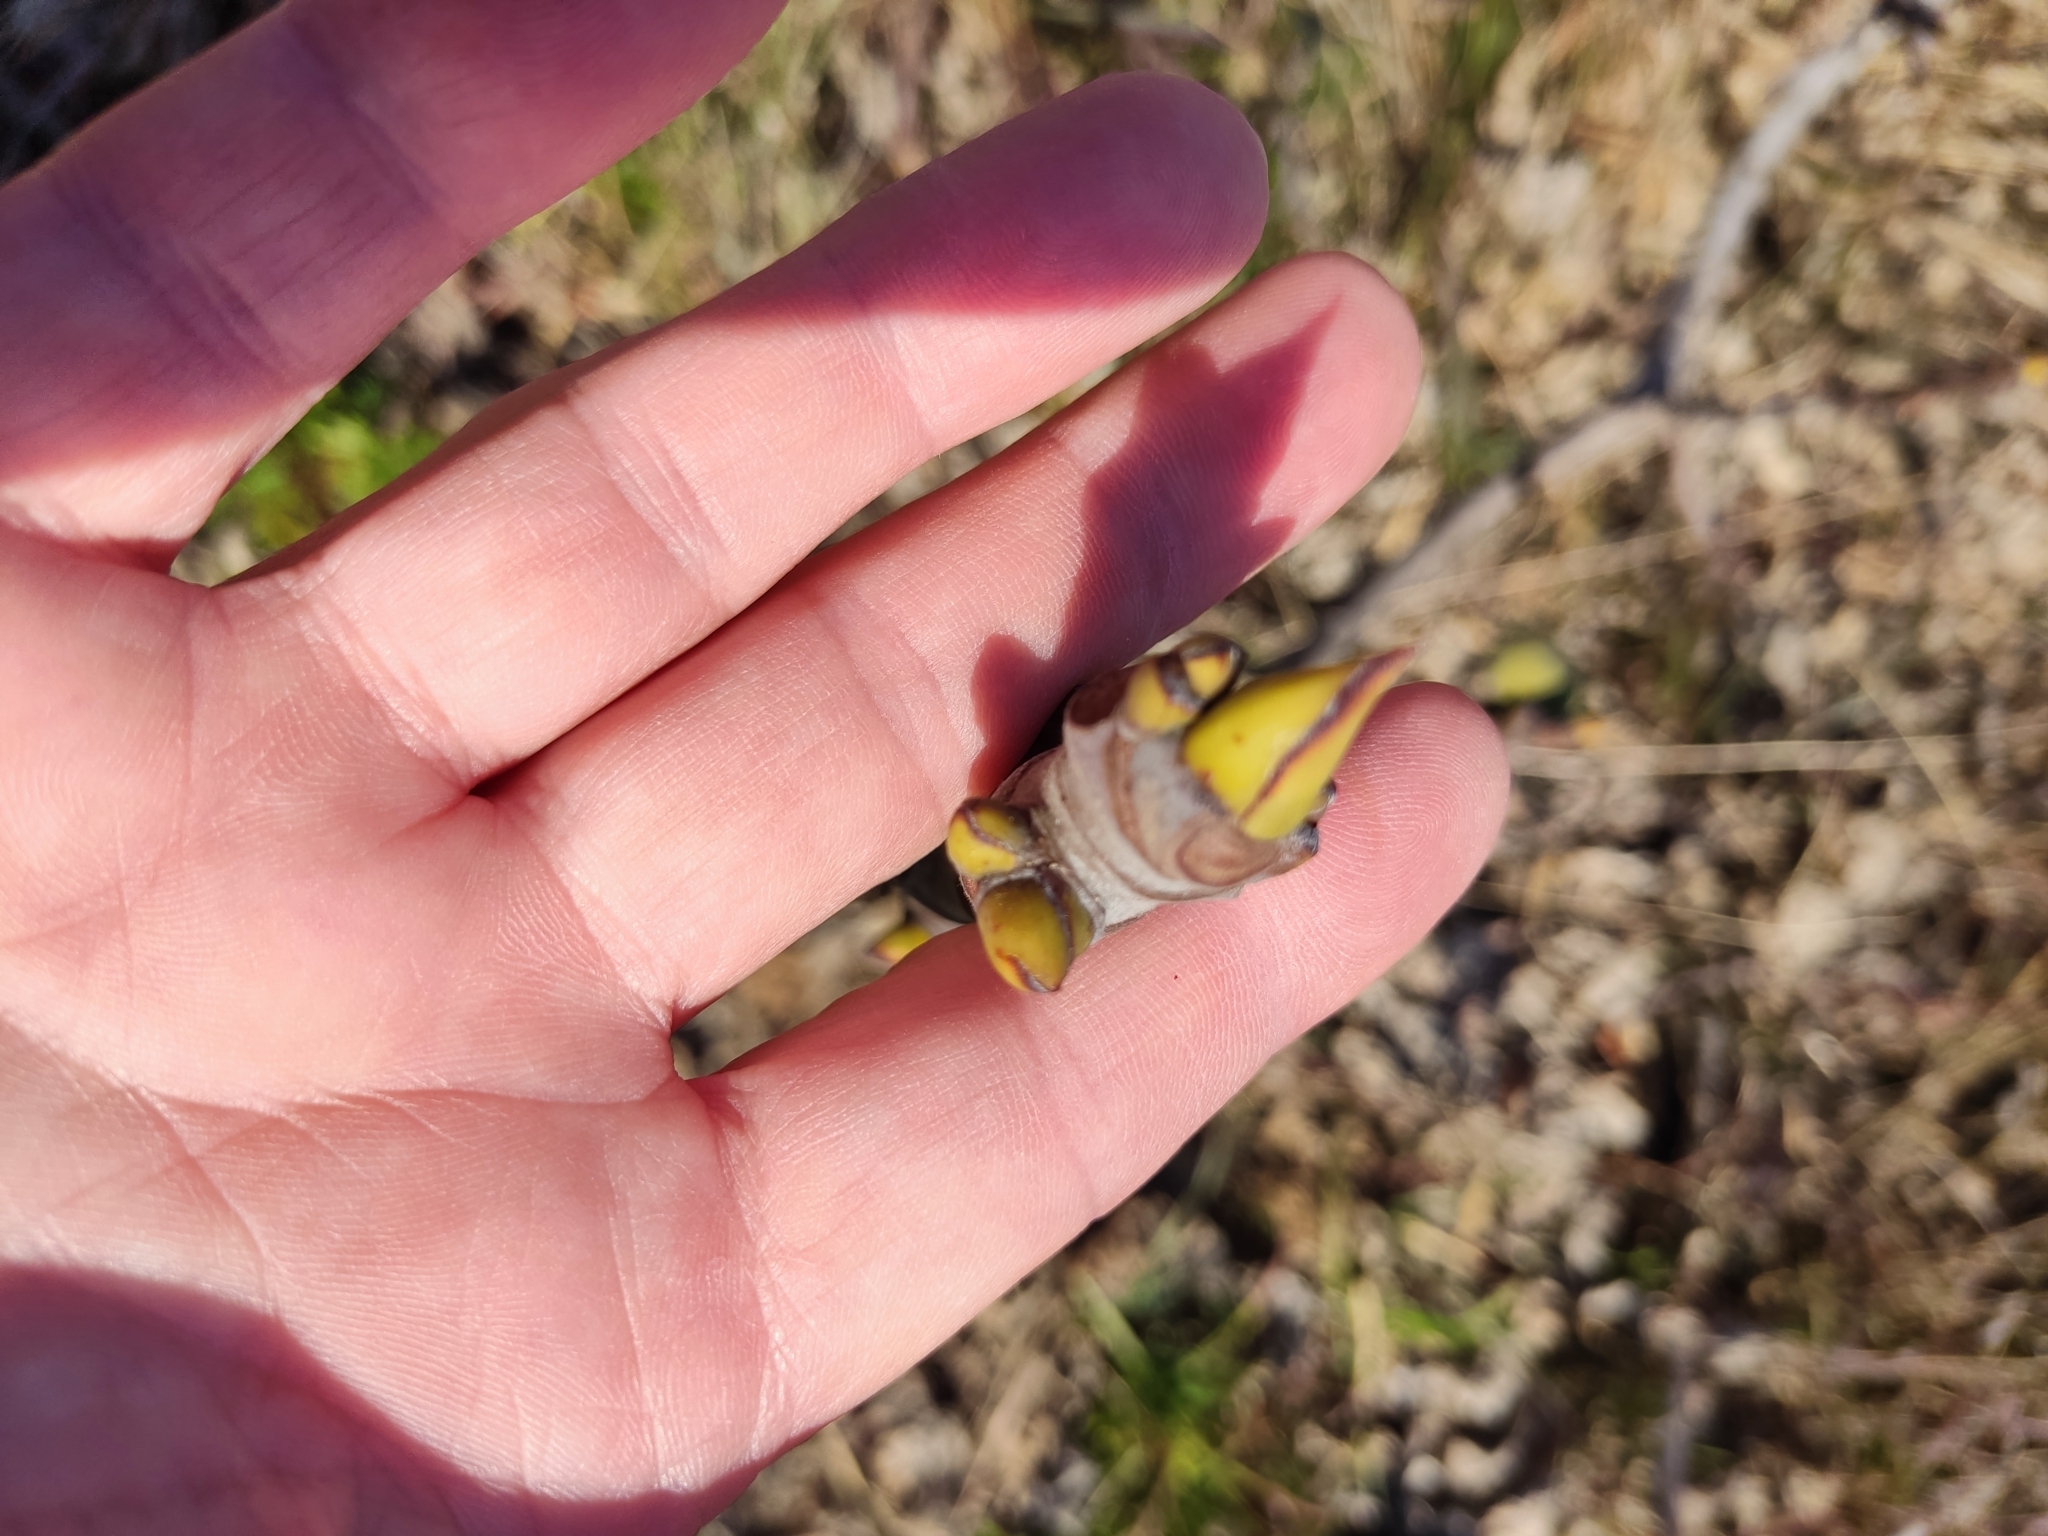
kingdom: Plantae
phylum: Tracheophyta
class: Magnoliopsida
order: Rosales
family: Moraceae
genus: Ficus
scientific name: Ficus carica
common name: Fig
